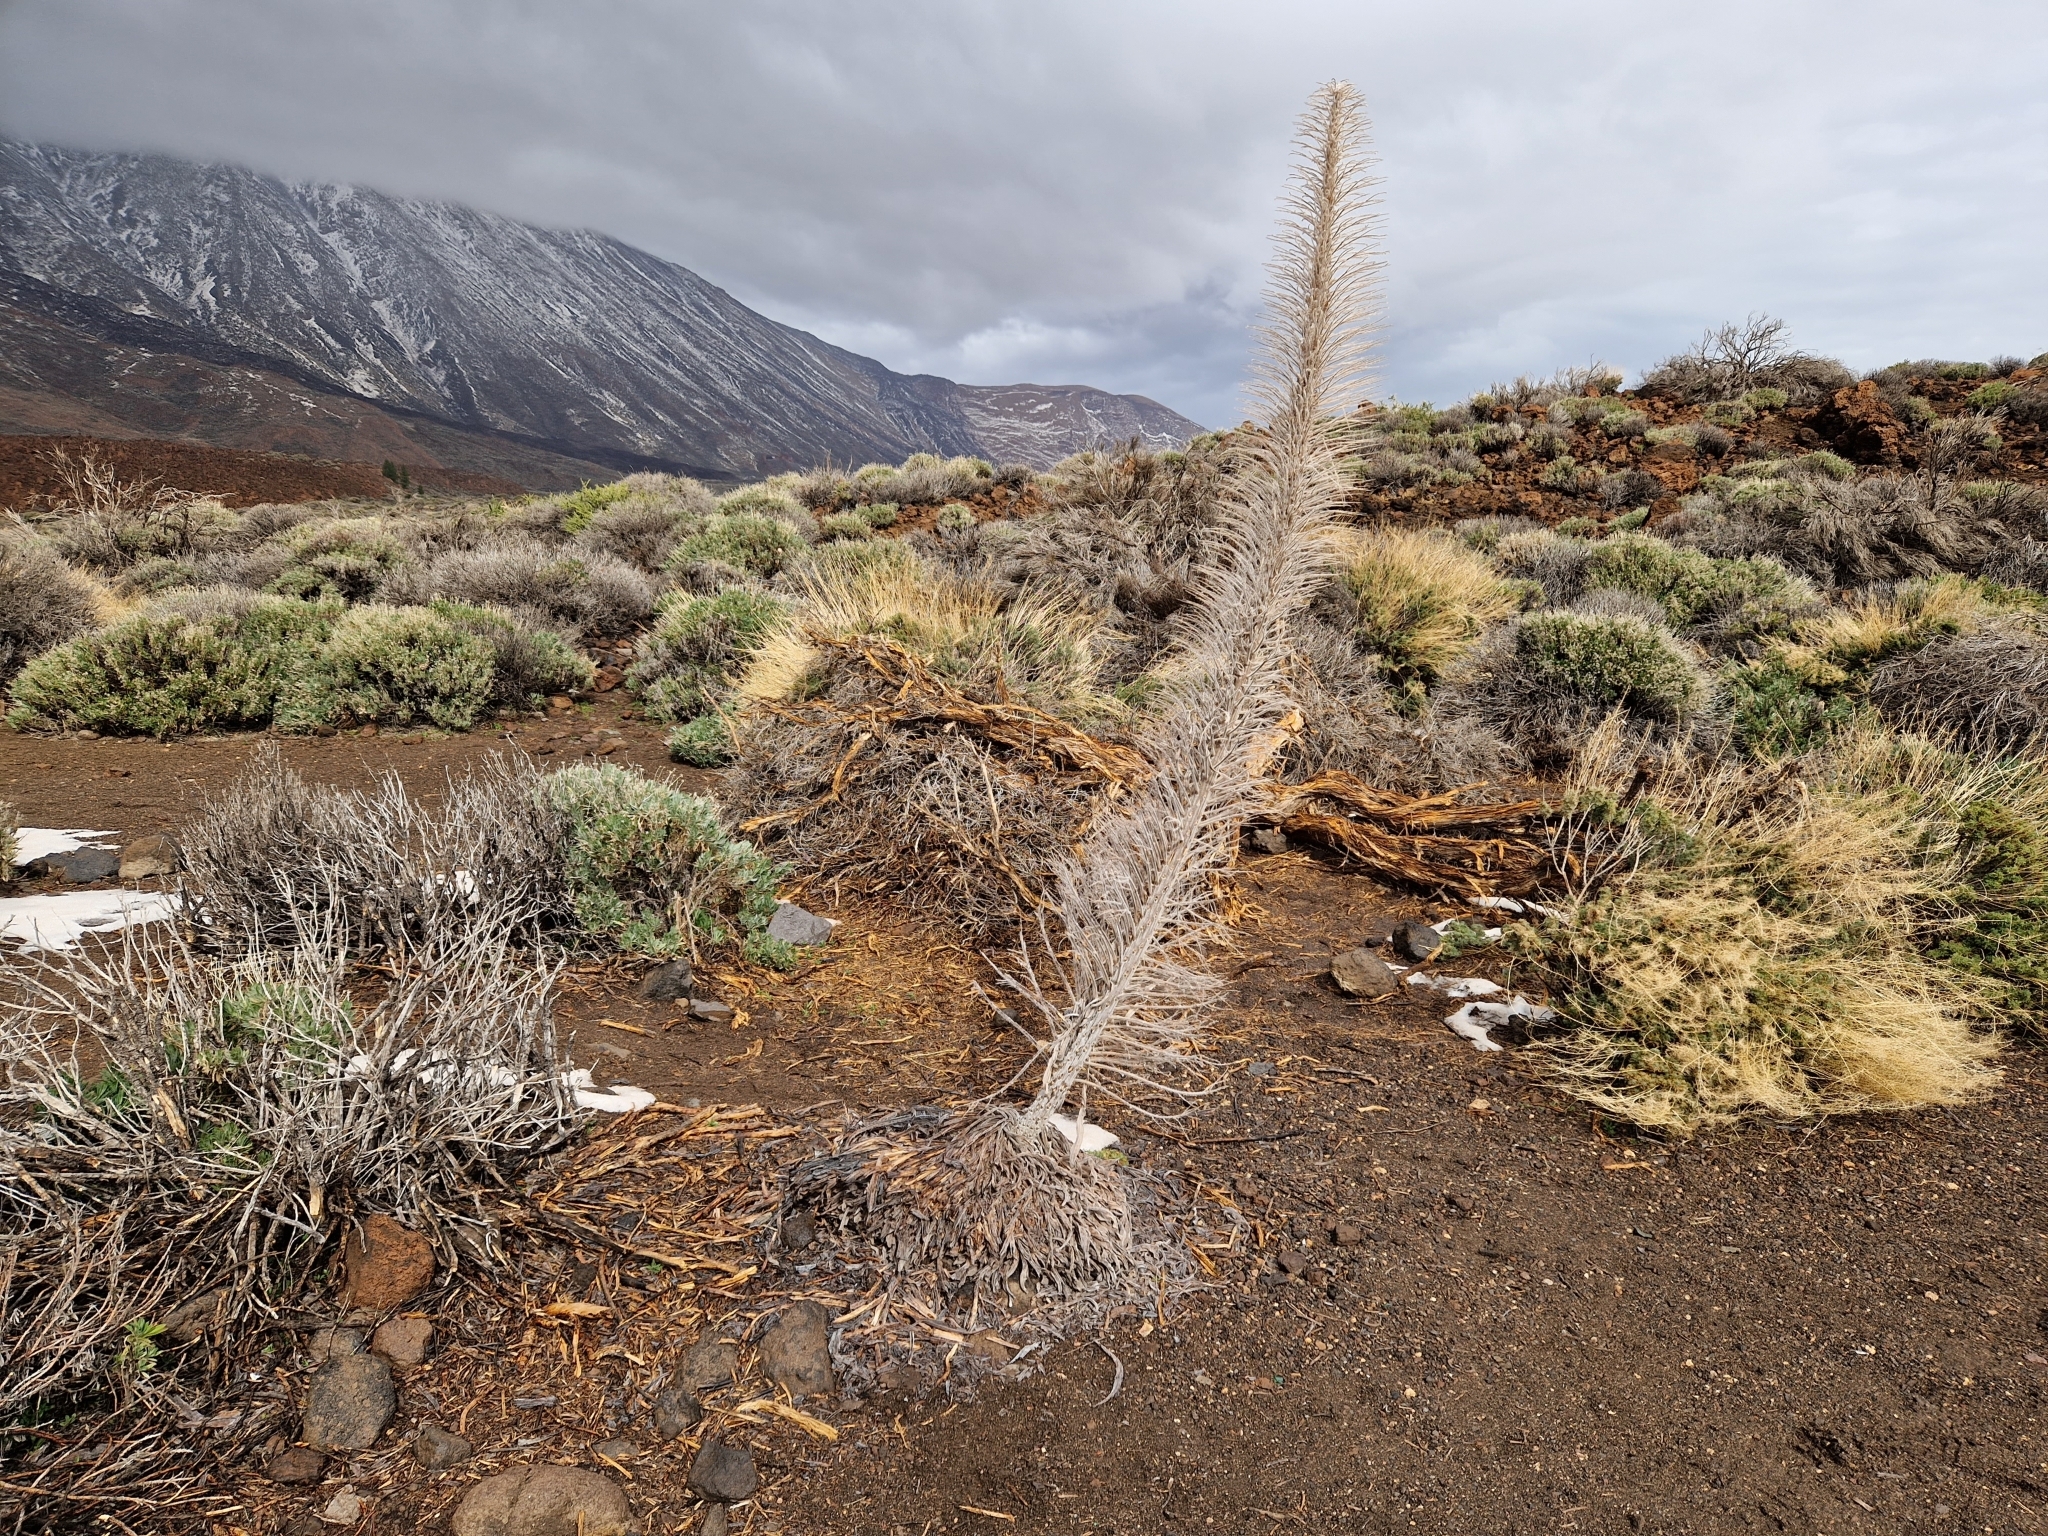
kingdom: Plantae
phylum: Tracheophyta
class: Magnoliopsida
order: Boraginales
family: Boraginaceae
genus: Echium
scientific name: Echium wildpretii
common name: Tower-of-jewels
